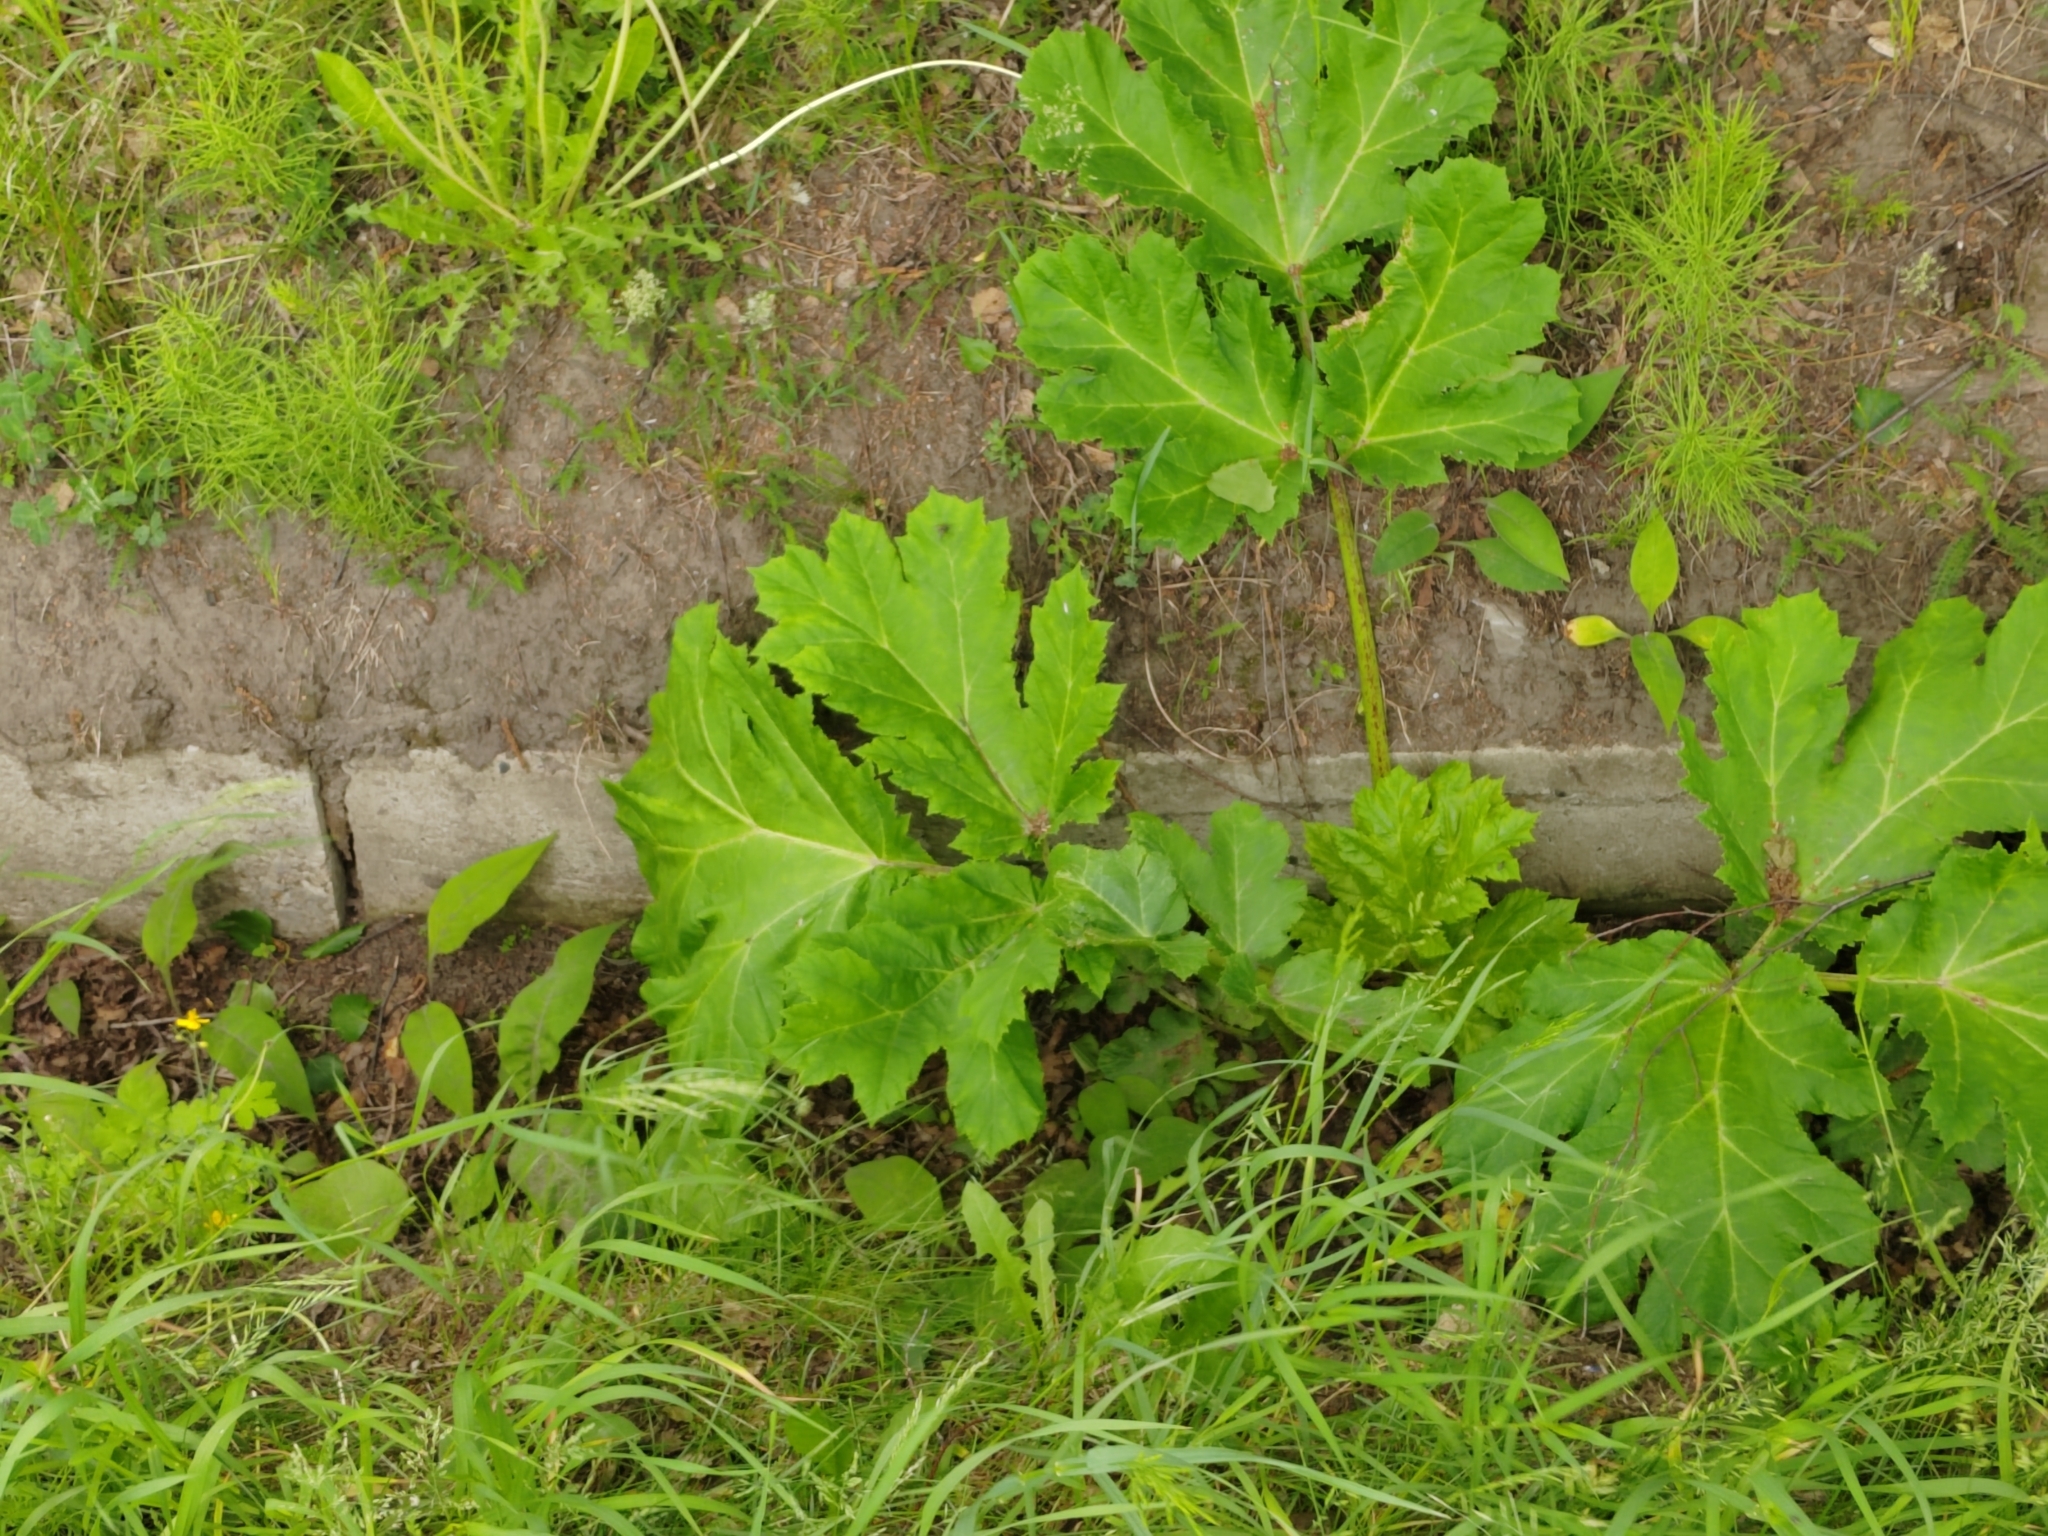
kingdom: Plantae
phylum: Tracheophyta
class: Magnoliopsida
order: Apiales
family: Apiaceae
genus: Heracleum
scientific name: Heracleum sosnowskyi
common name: Sosnowsky's hogweed
